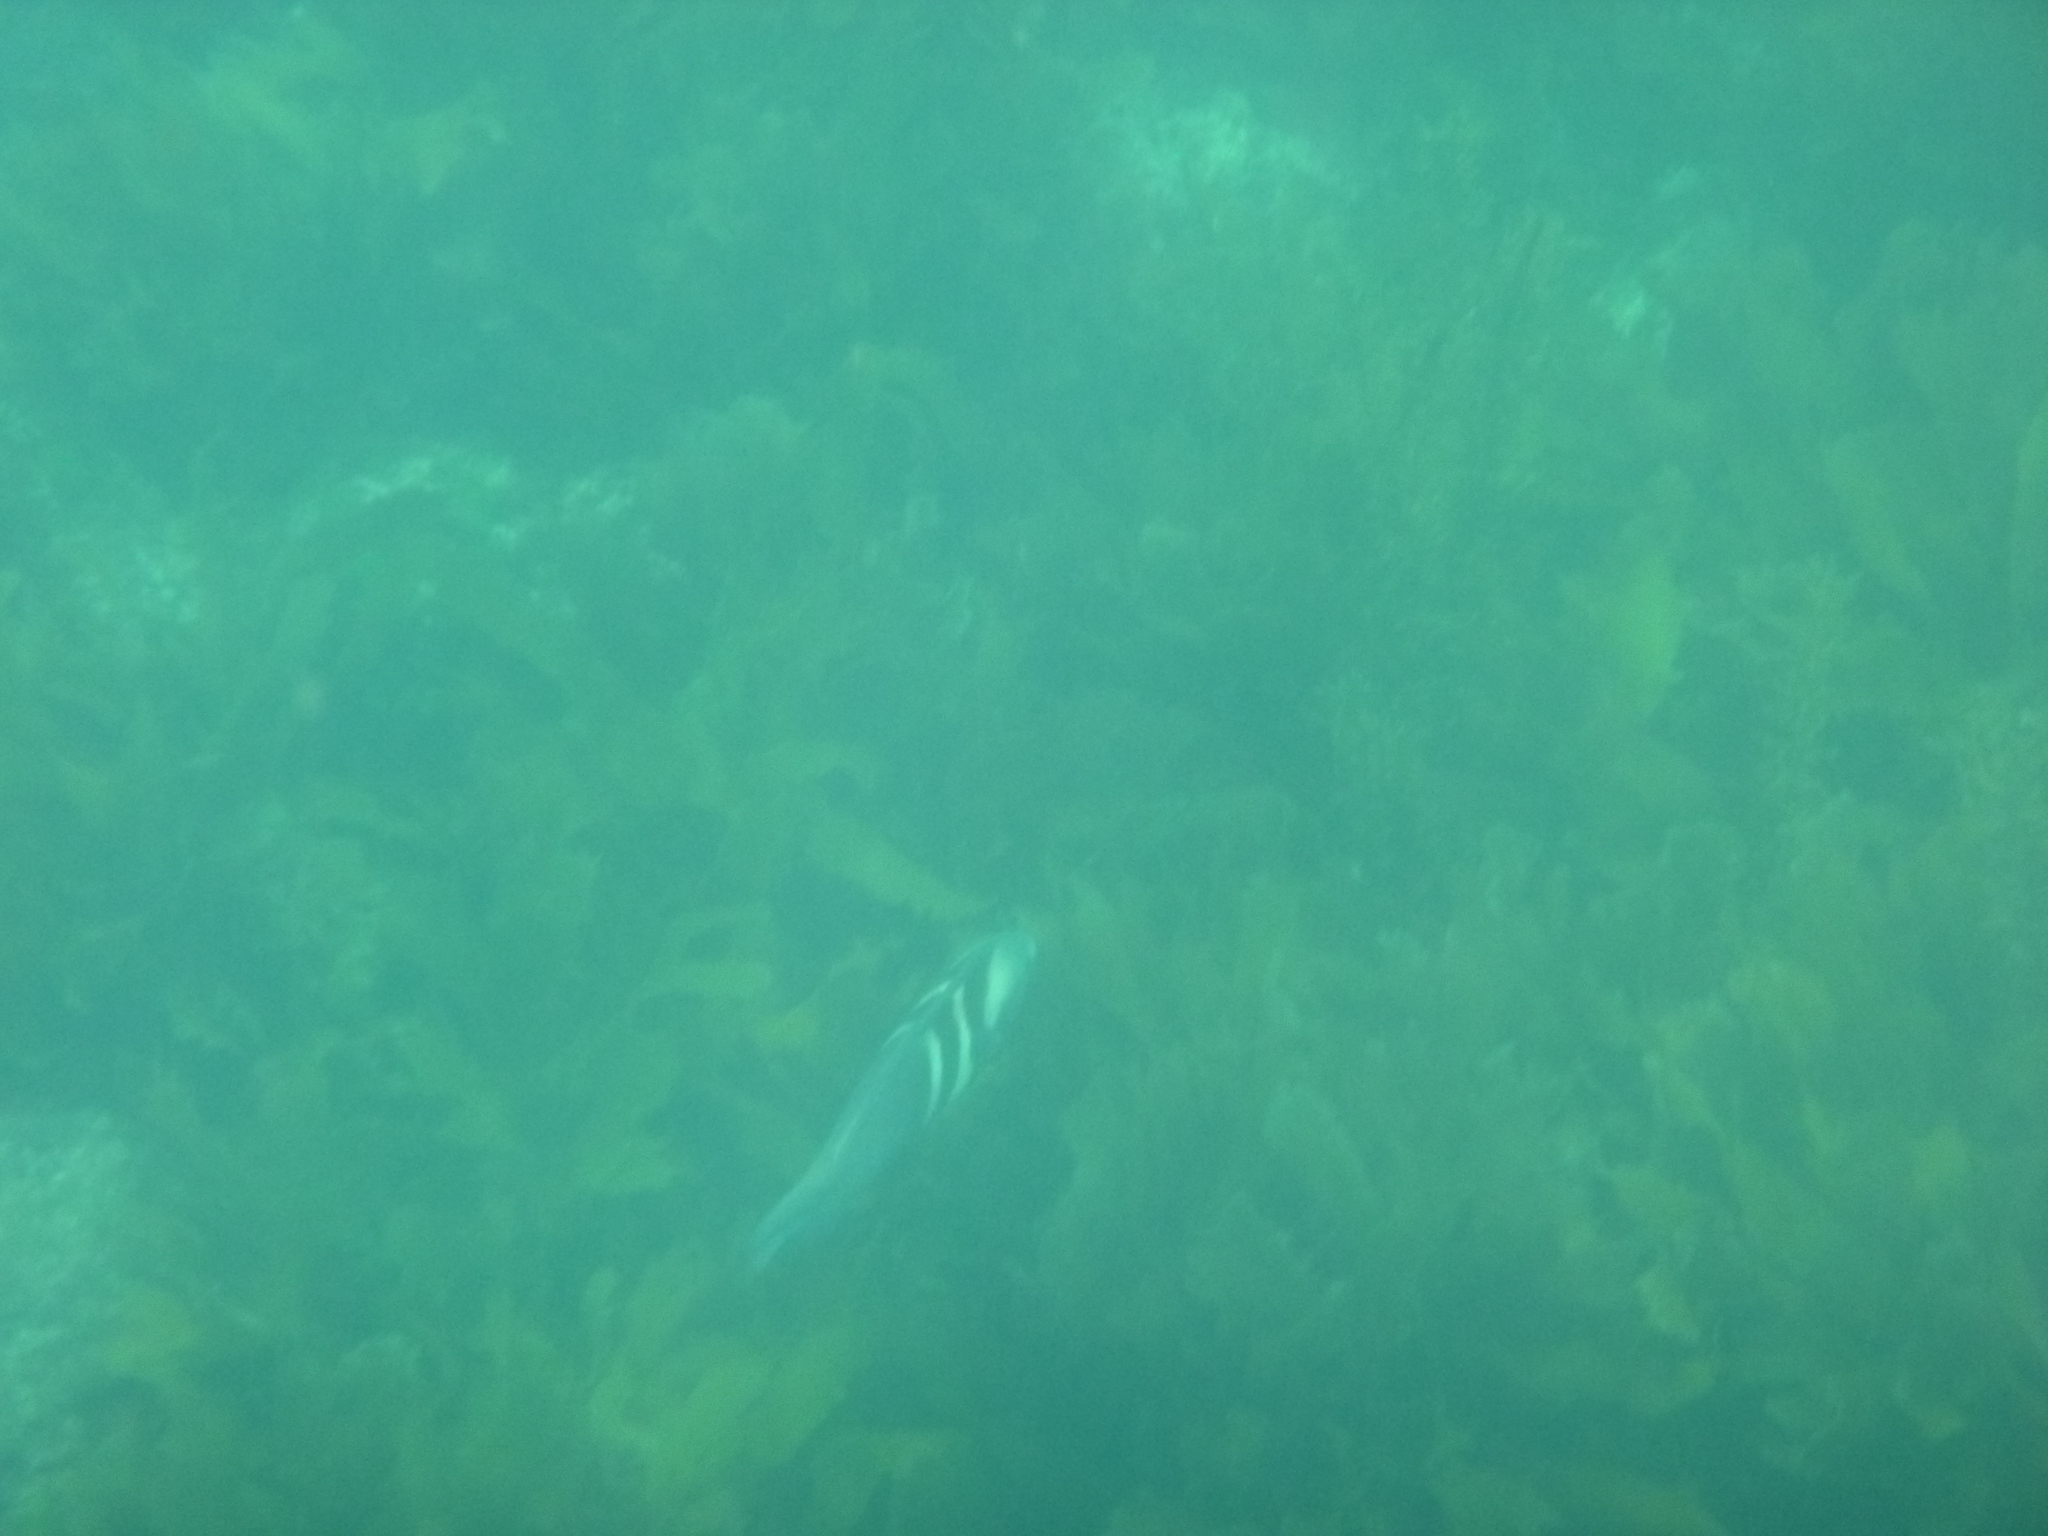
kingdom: Animalia
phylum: Chordata
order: Perciformes
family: Labridae
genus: Coris
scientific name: Coris sandeyeri
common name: Sandager's wrasse
